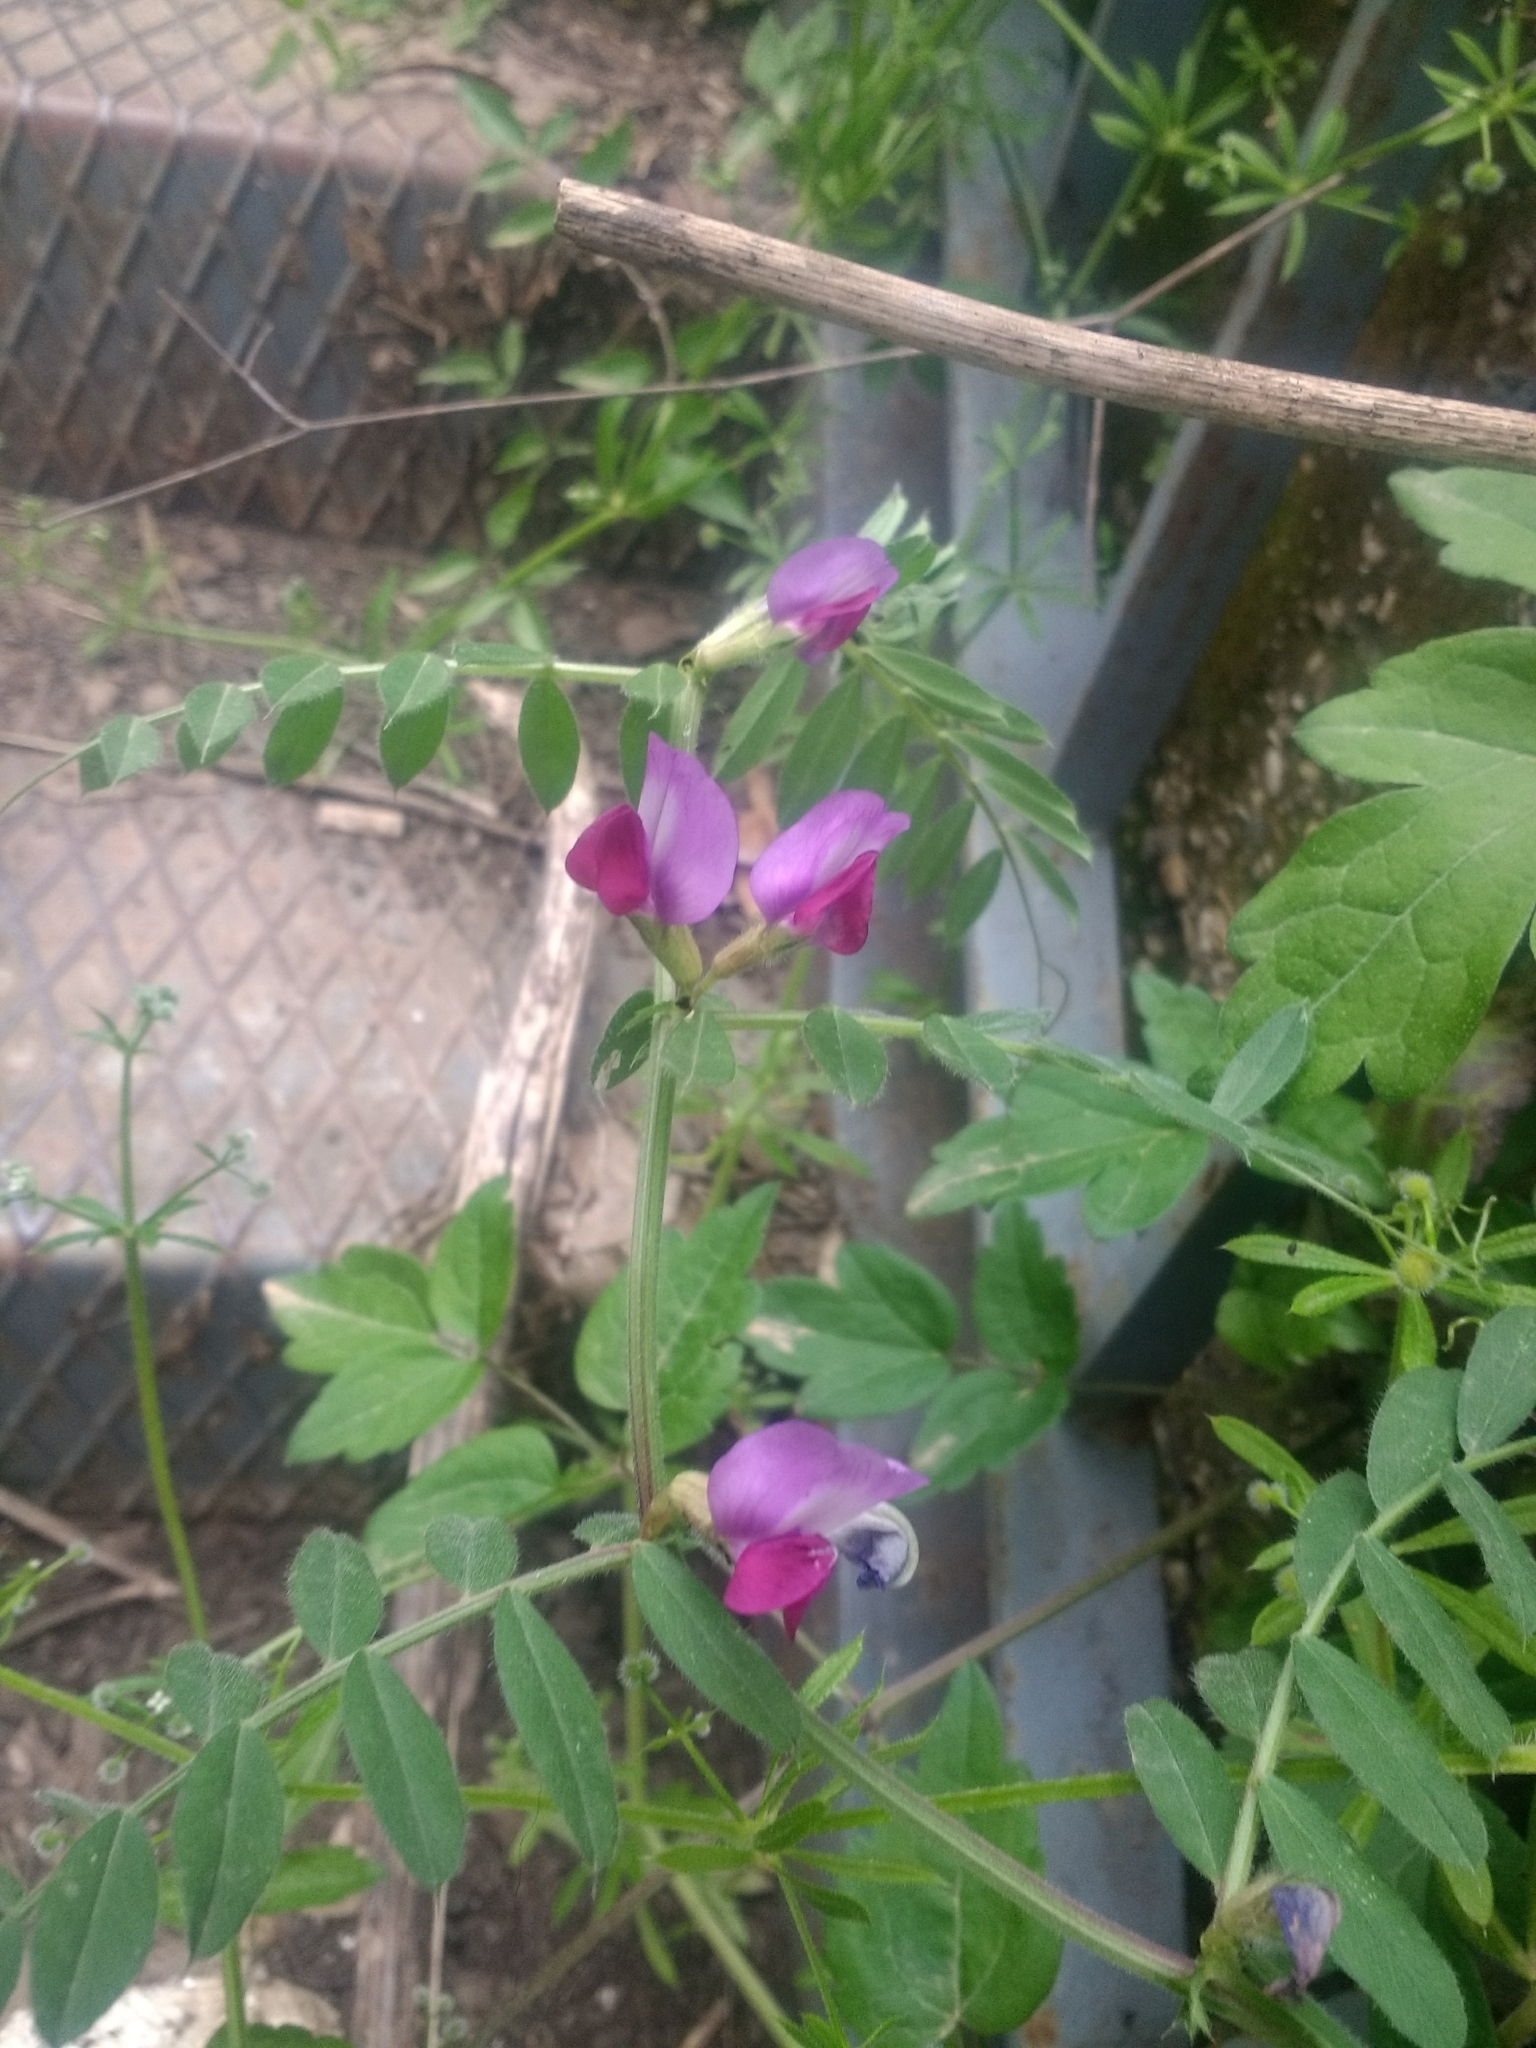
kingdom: Plantae
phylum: Tracheophyta
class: Magnoliopsida
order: Fabales
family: Fabaceae
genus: Vicia
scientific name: Vicia sativa
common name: Garden vetch
